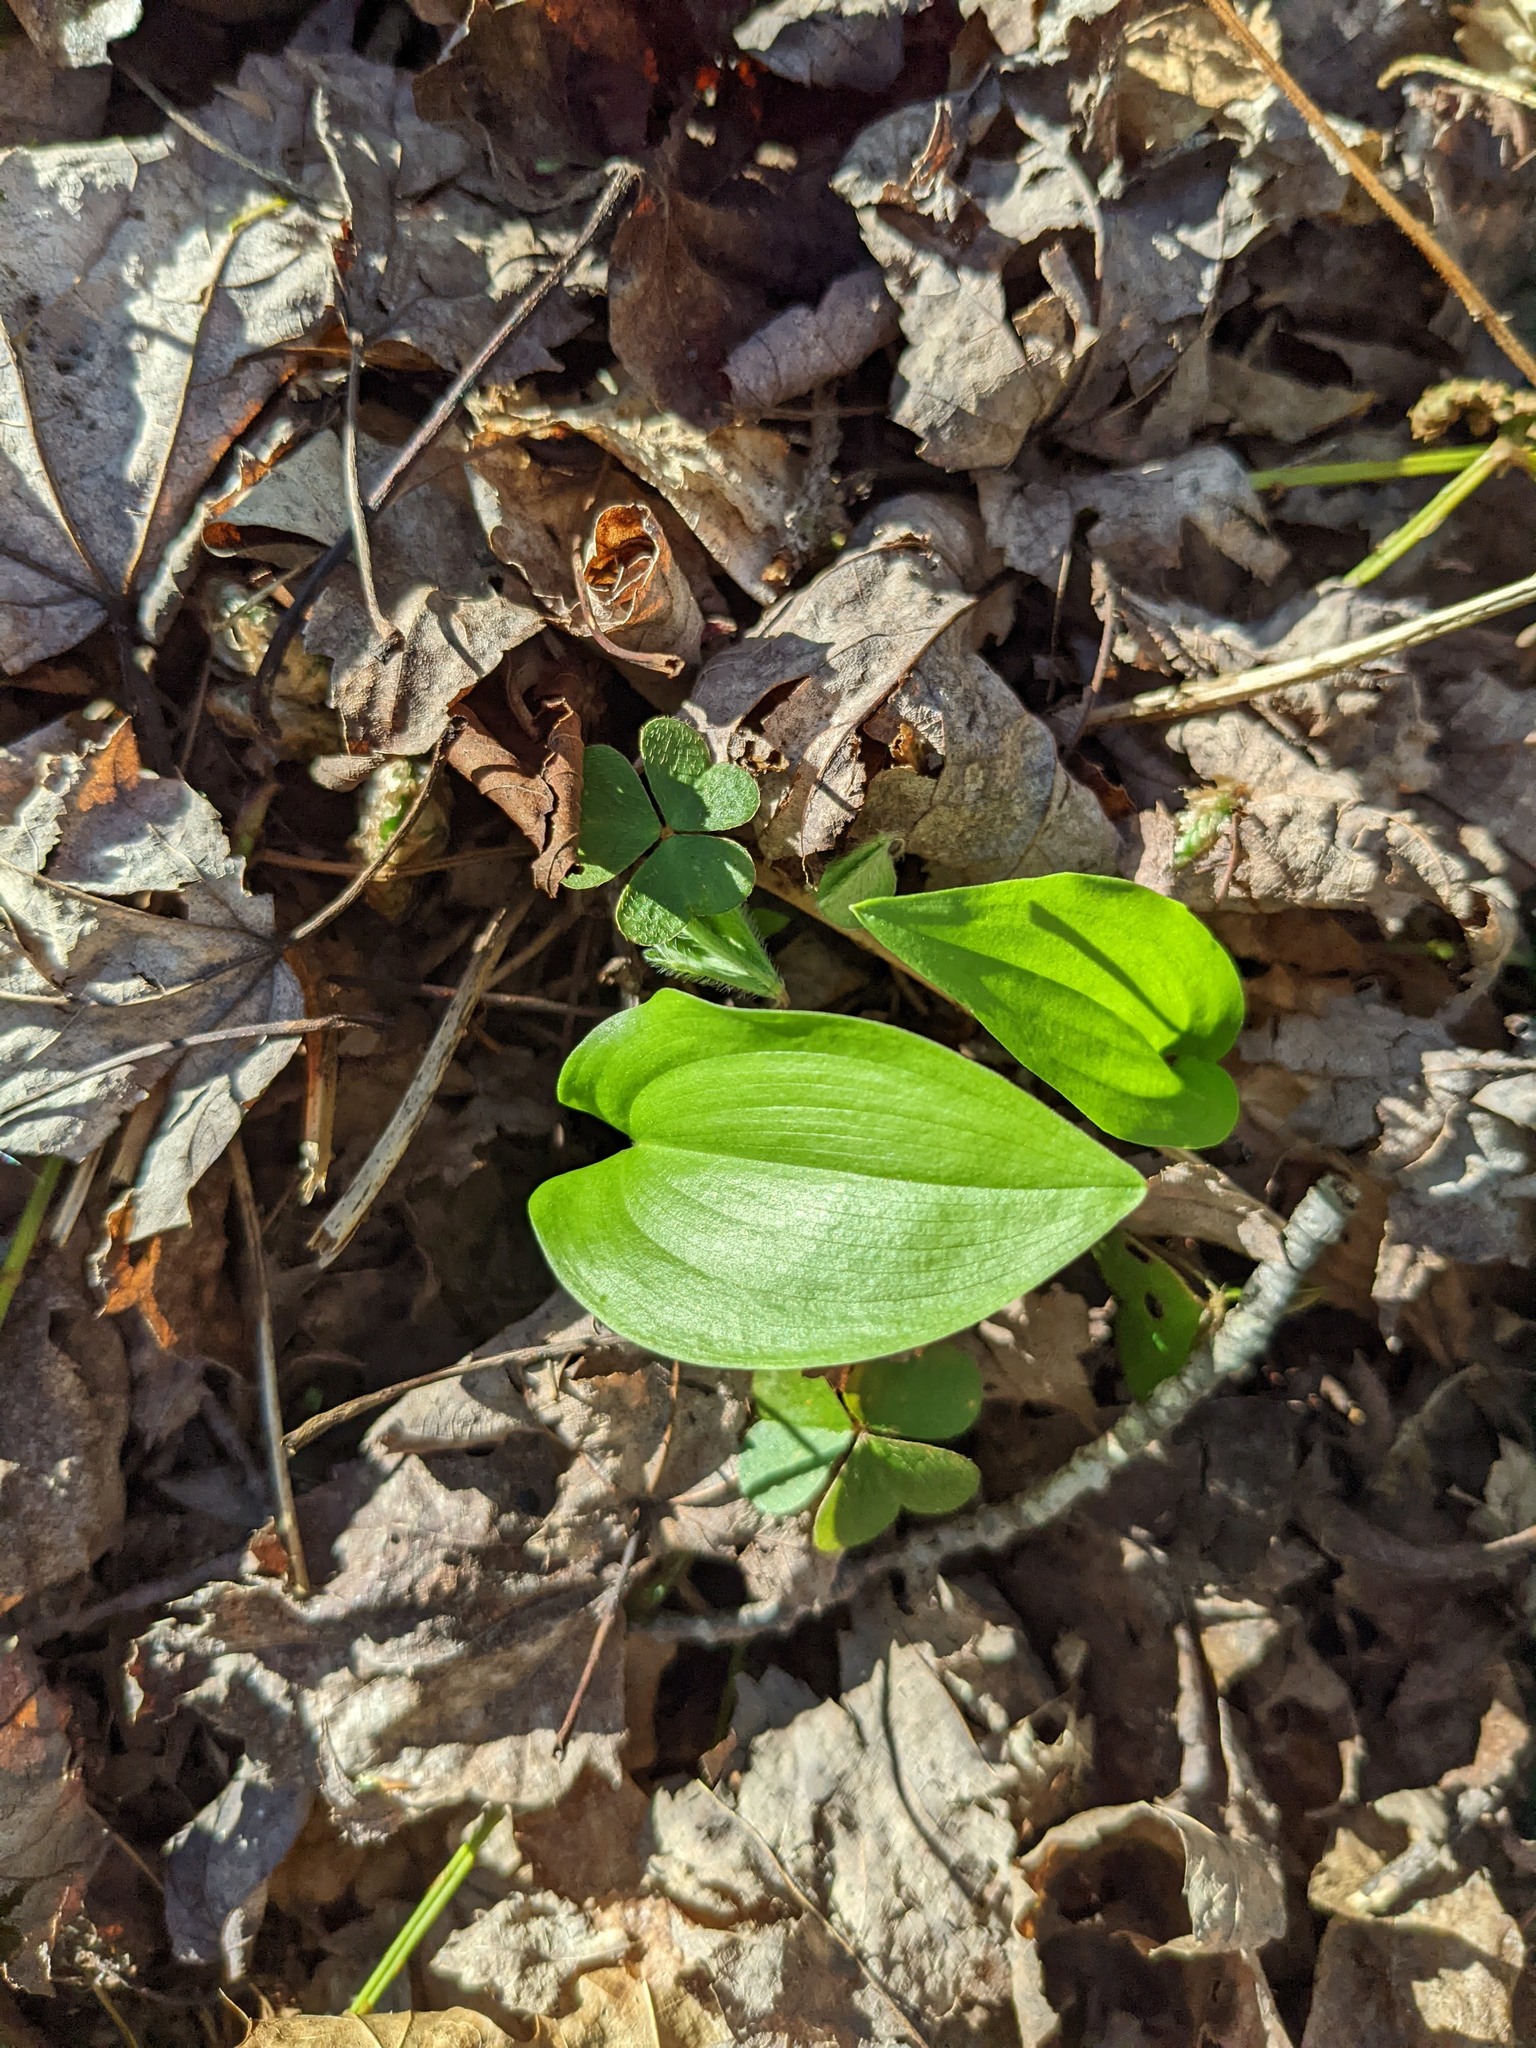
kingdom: Plantae
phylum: Tracheophyta
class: Liliopsida
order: Asparagales
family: Asparagaceae
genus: Maianthemum
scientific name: Maianthemum canadense
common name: False lily-of-the-valley
